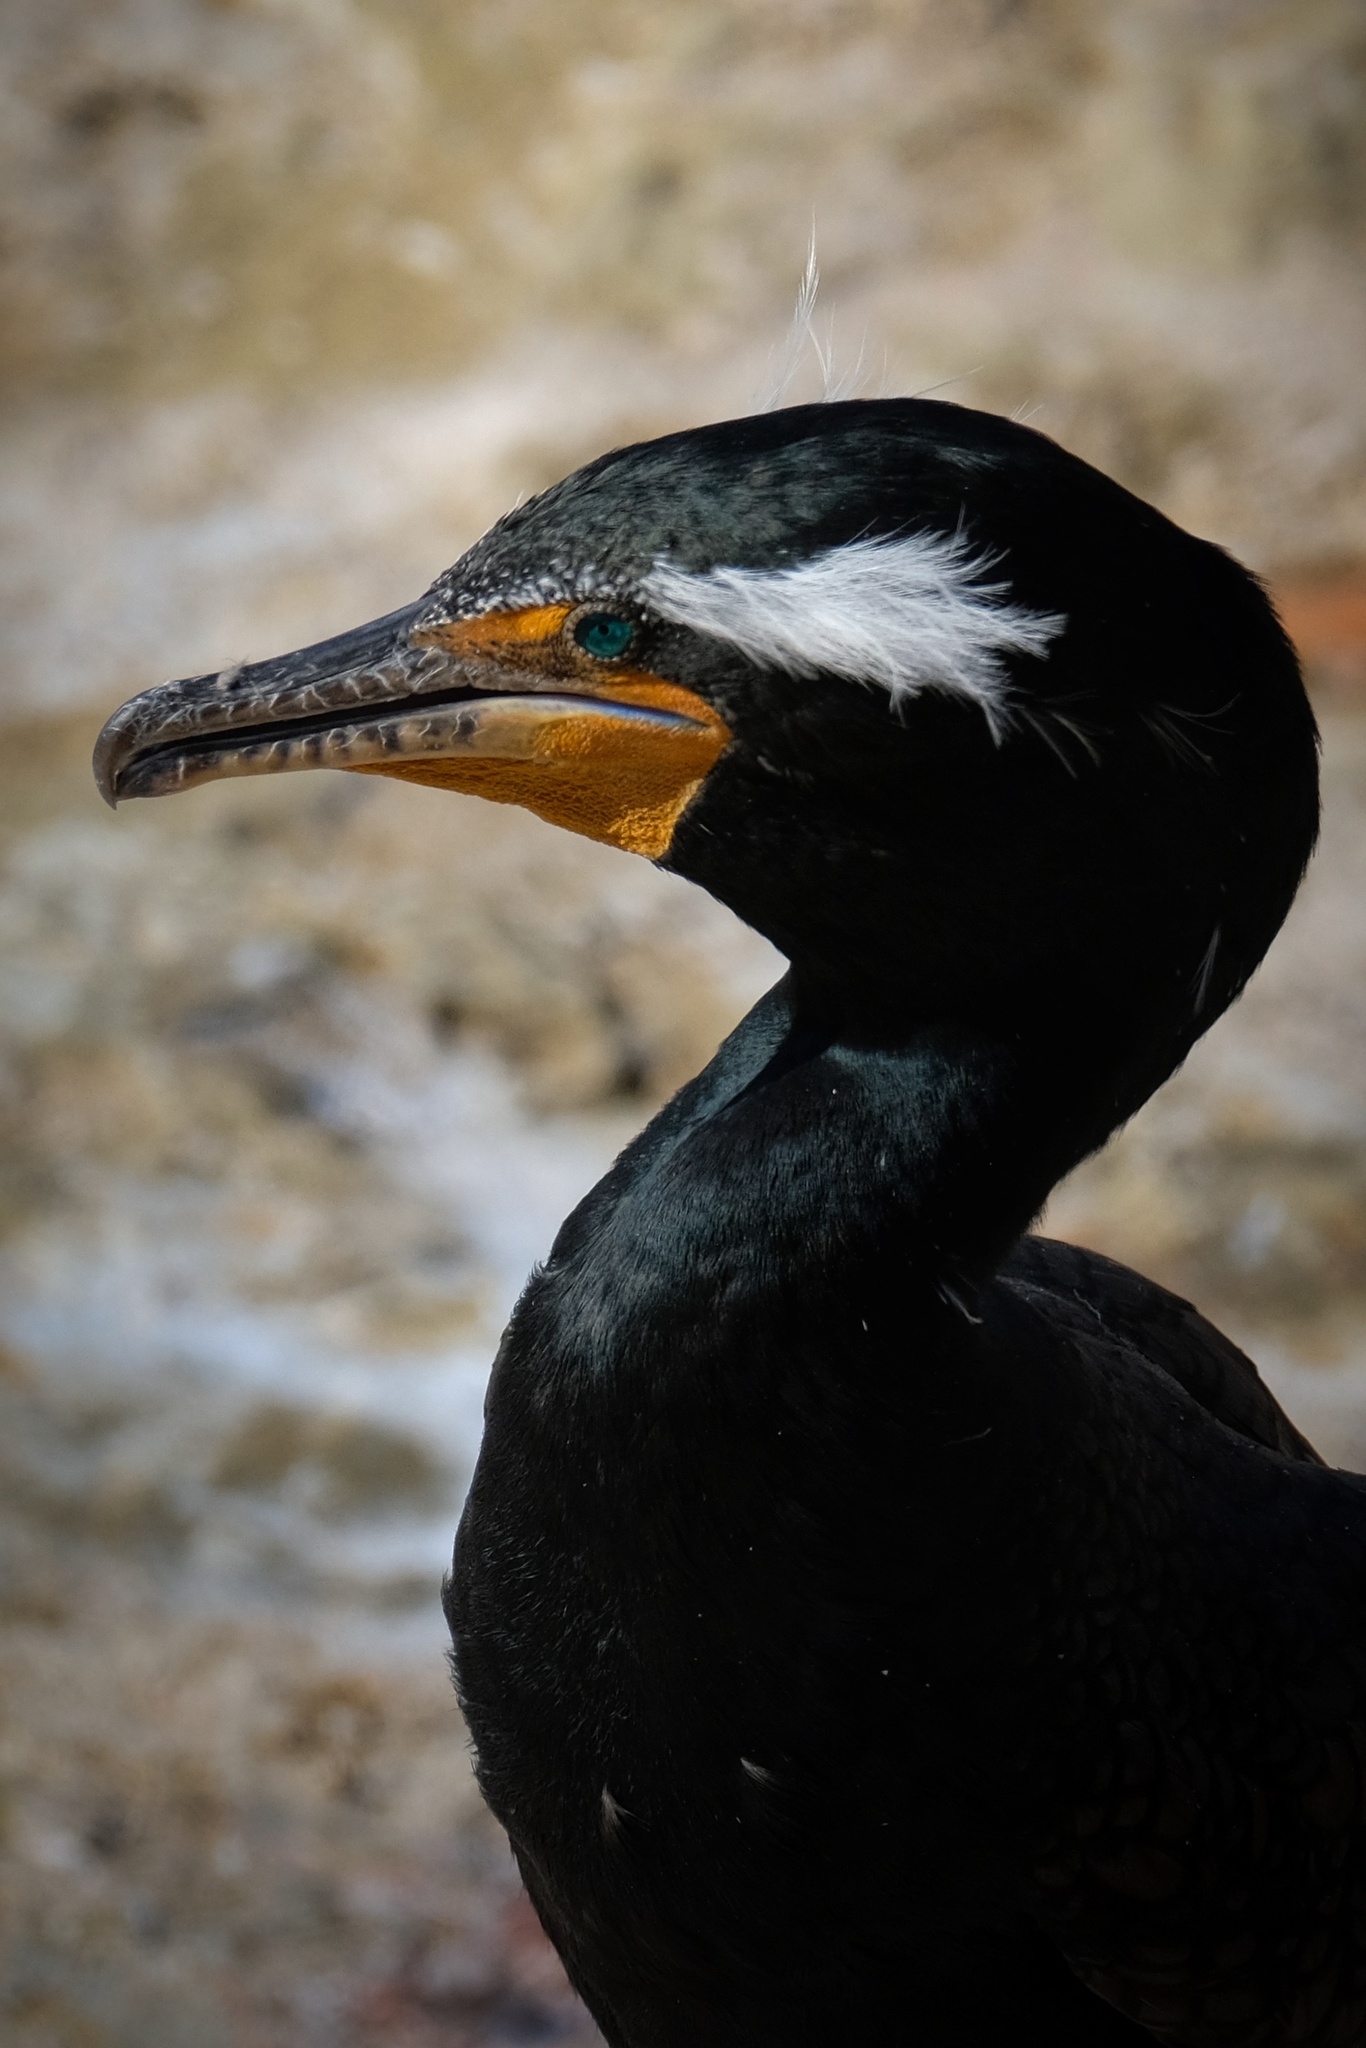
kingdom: Animalia
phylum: Chordata
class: Aves
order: Suliformes
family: Phalacrocoracidae
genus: Phalacrocorax
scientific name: Phalacrocorax auritus
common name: Double-crested cormorant
